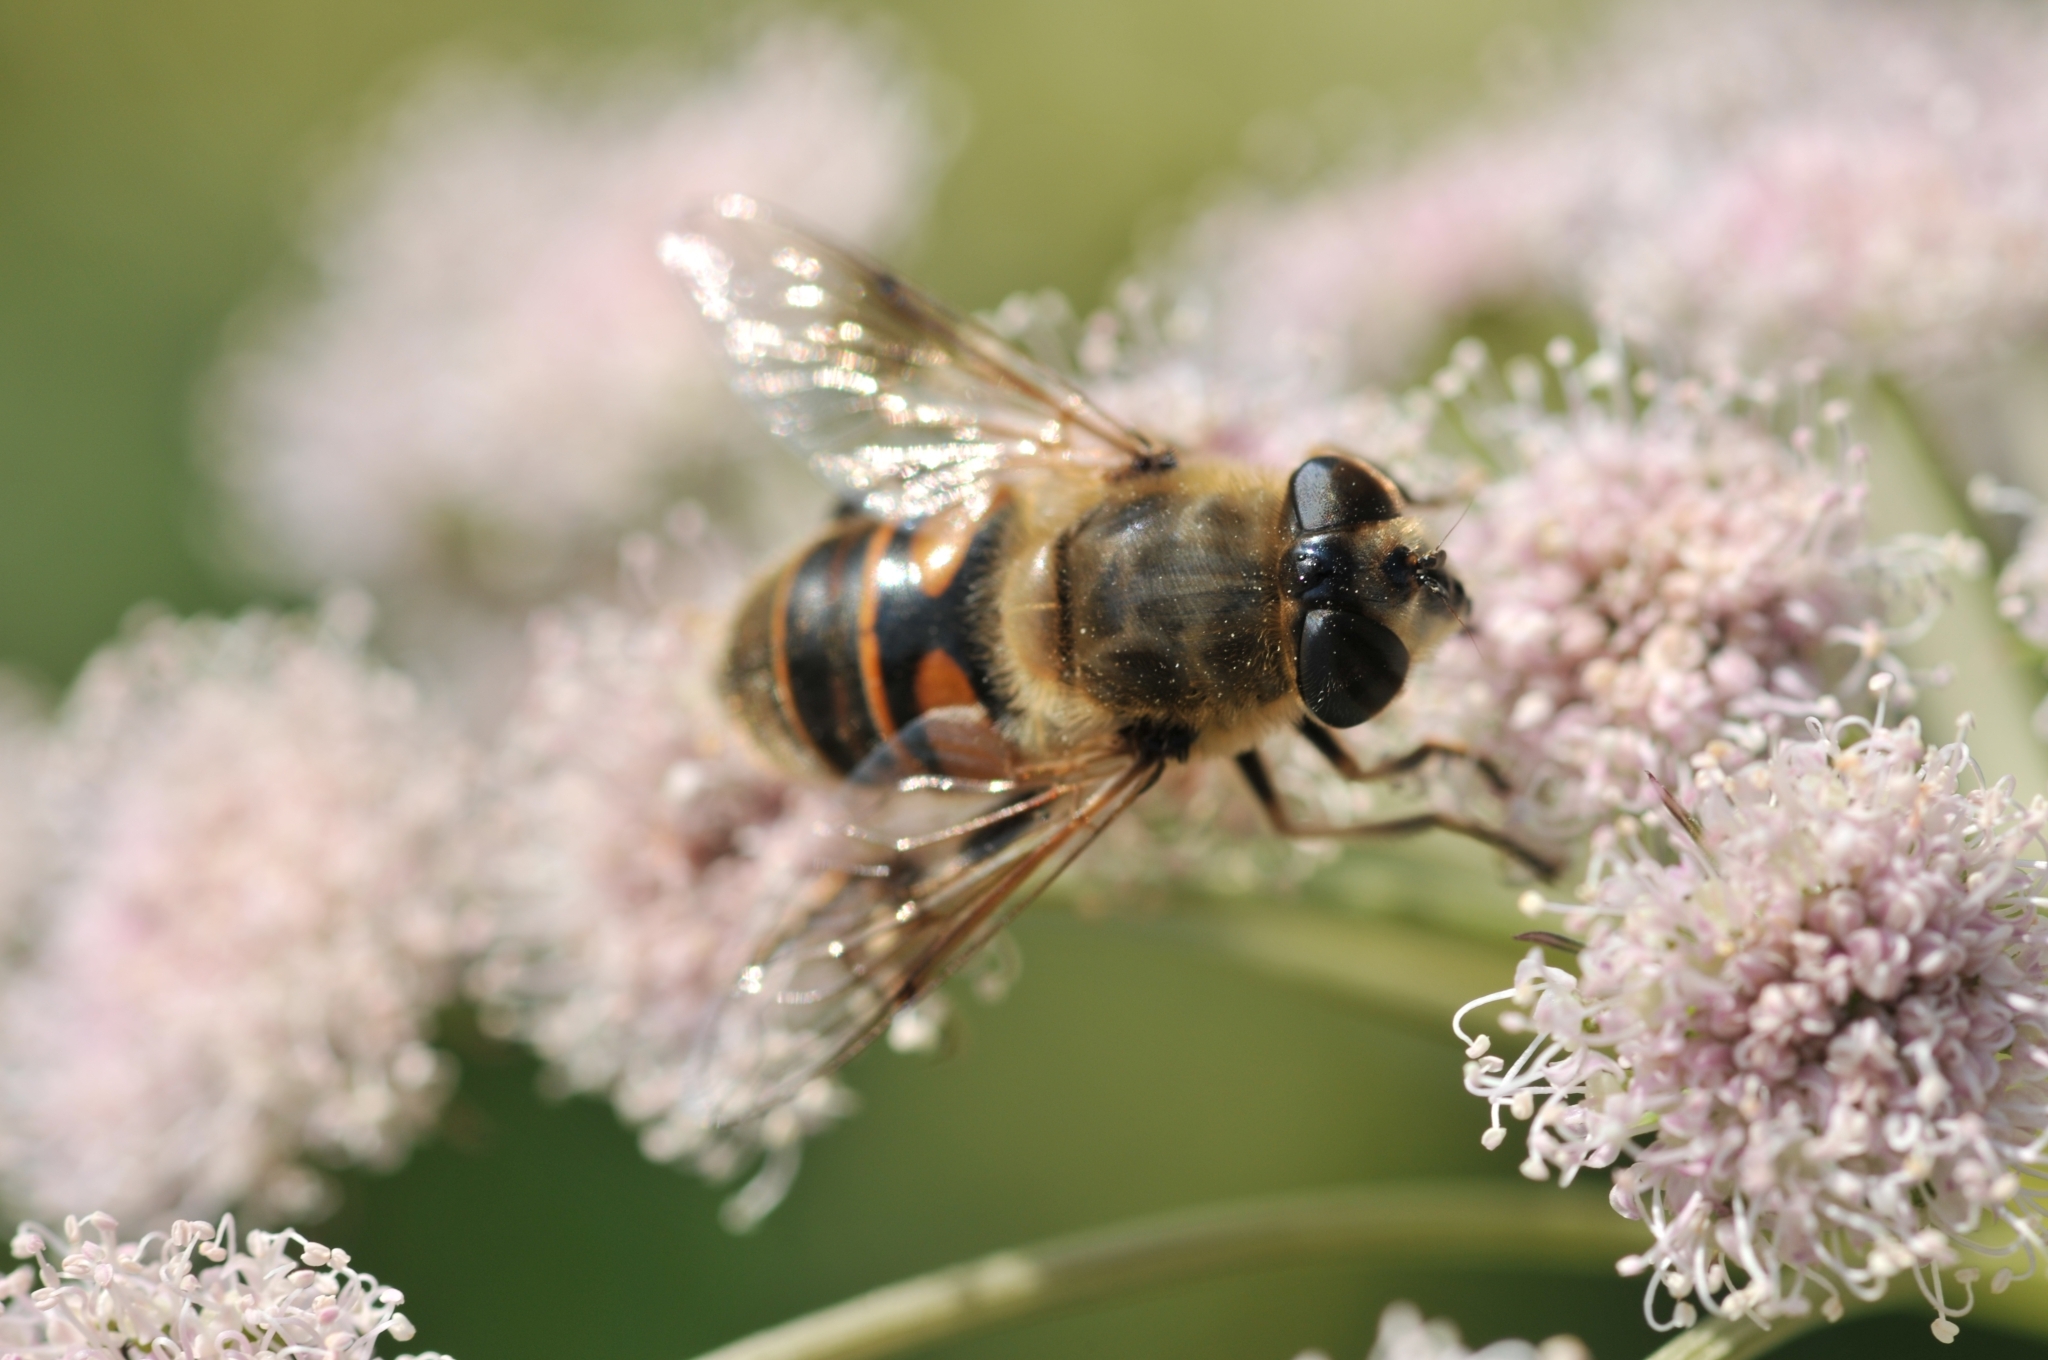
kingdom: Animalia
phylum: Arthropoda
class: Insecta
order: Diptera
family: Syrphidae
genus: Eristalis
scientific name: Eristalis tenax
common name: Drone fly
